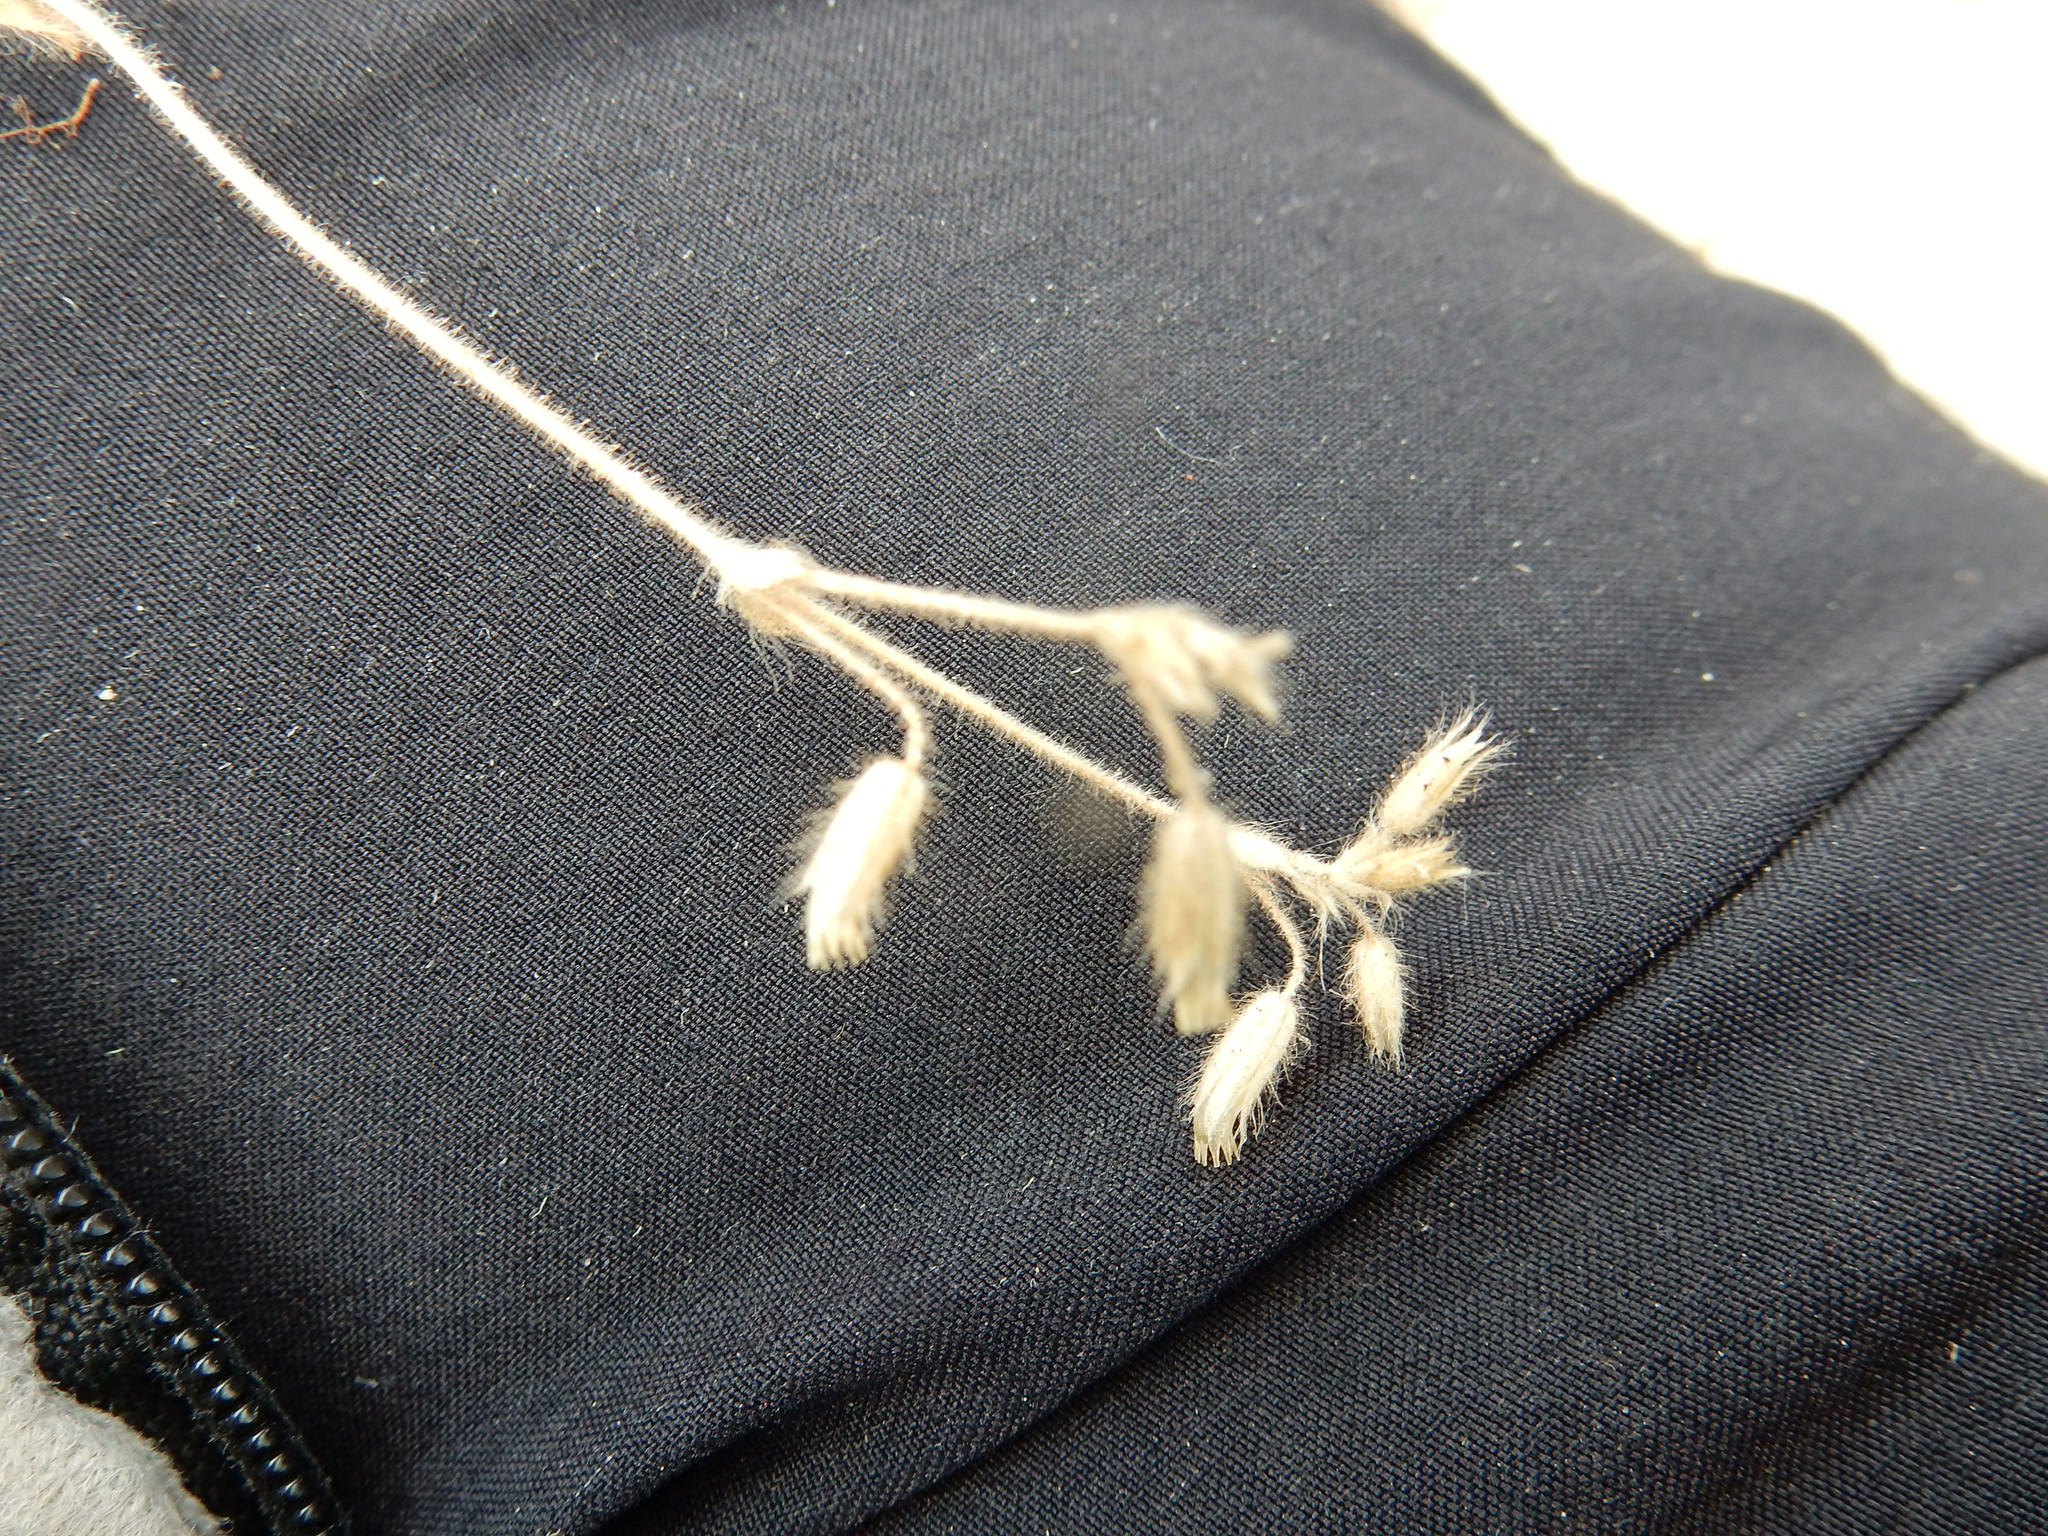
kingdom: Plantae
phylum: Tracheophyta
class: Magnoliopsida
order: Caryophyllales
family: Caryophyllaceae
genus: Cerastium
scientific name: Cerastium brachypetalum
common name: Grey mouse-ear
